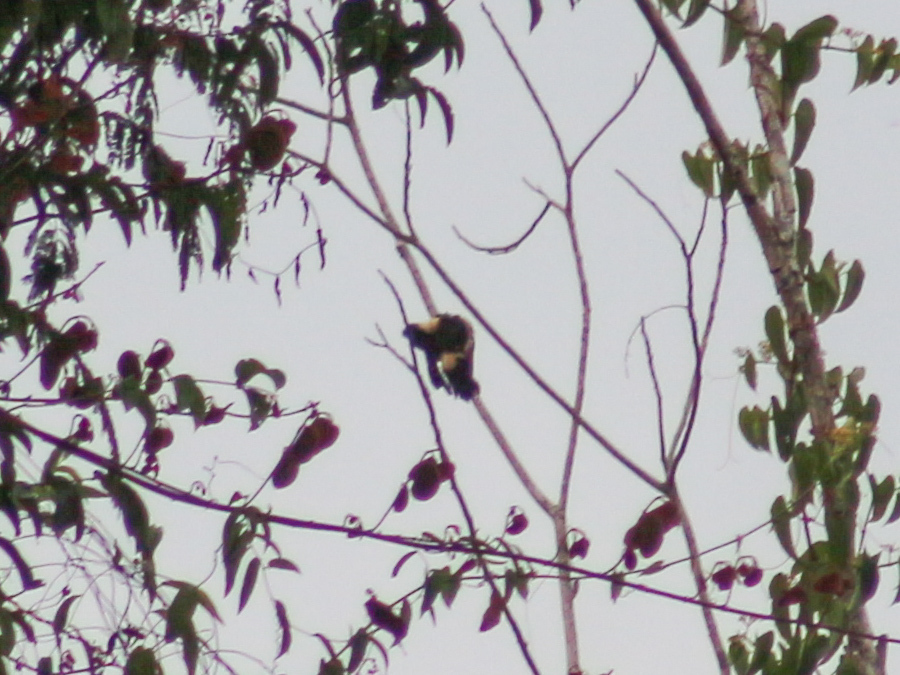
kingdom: Animalia
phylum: Chordata
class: Aves
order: Piciformes
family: Picidae
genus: Meiglyptes
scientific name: Meiglyptes jugularis
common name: Black-and-buff woodpecker
